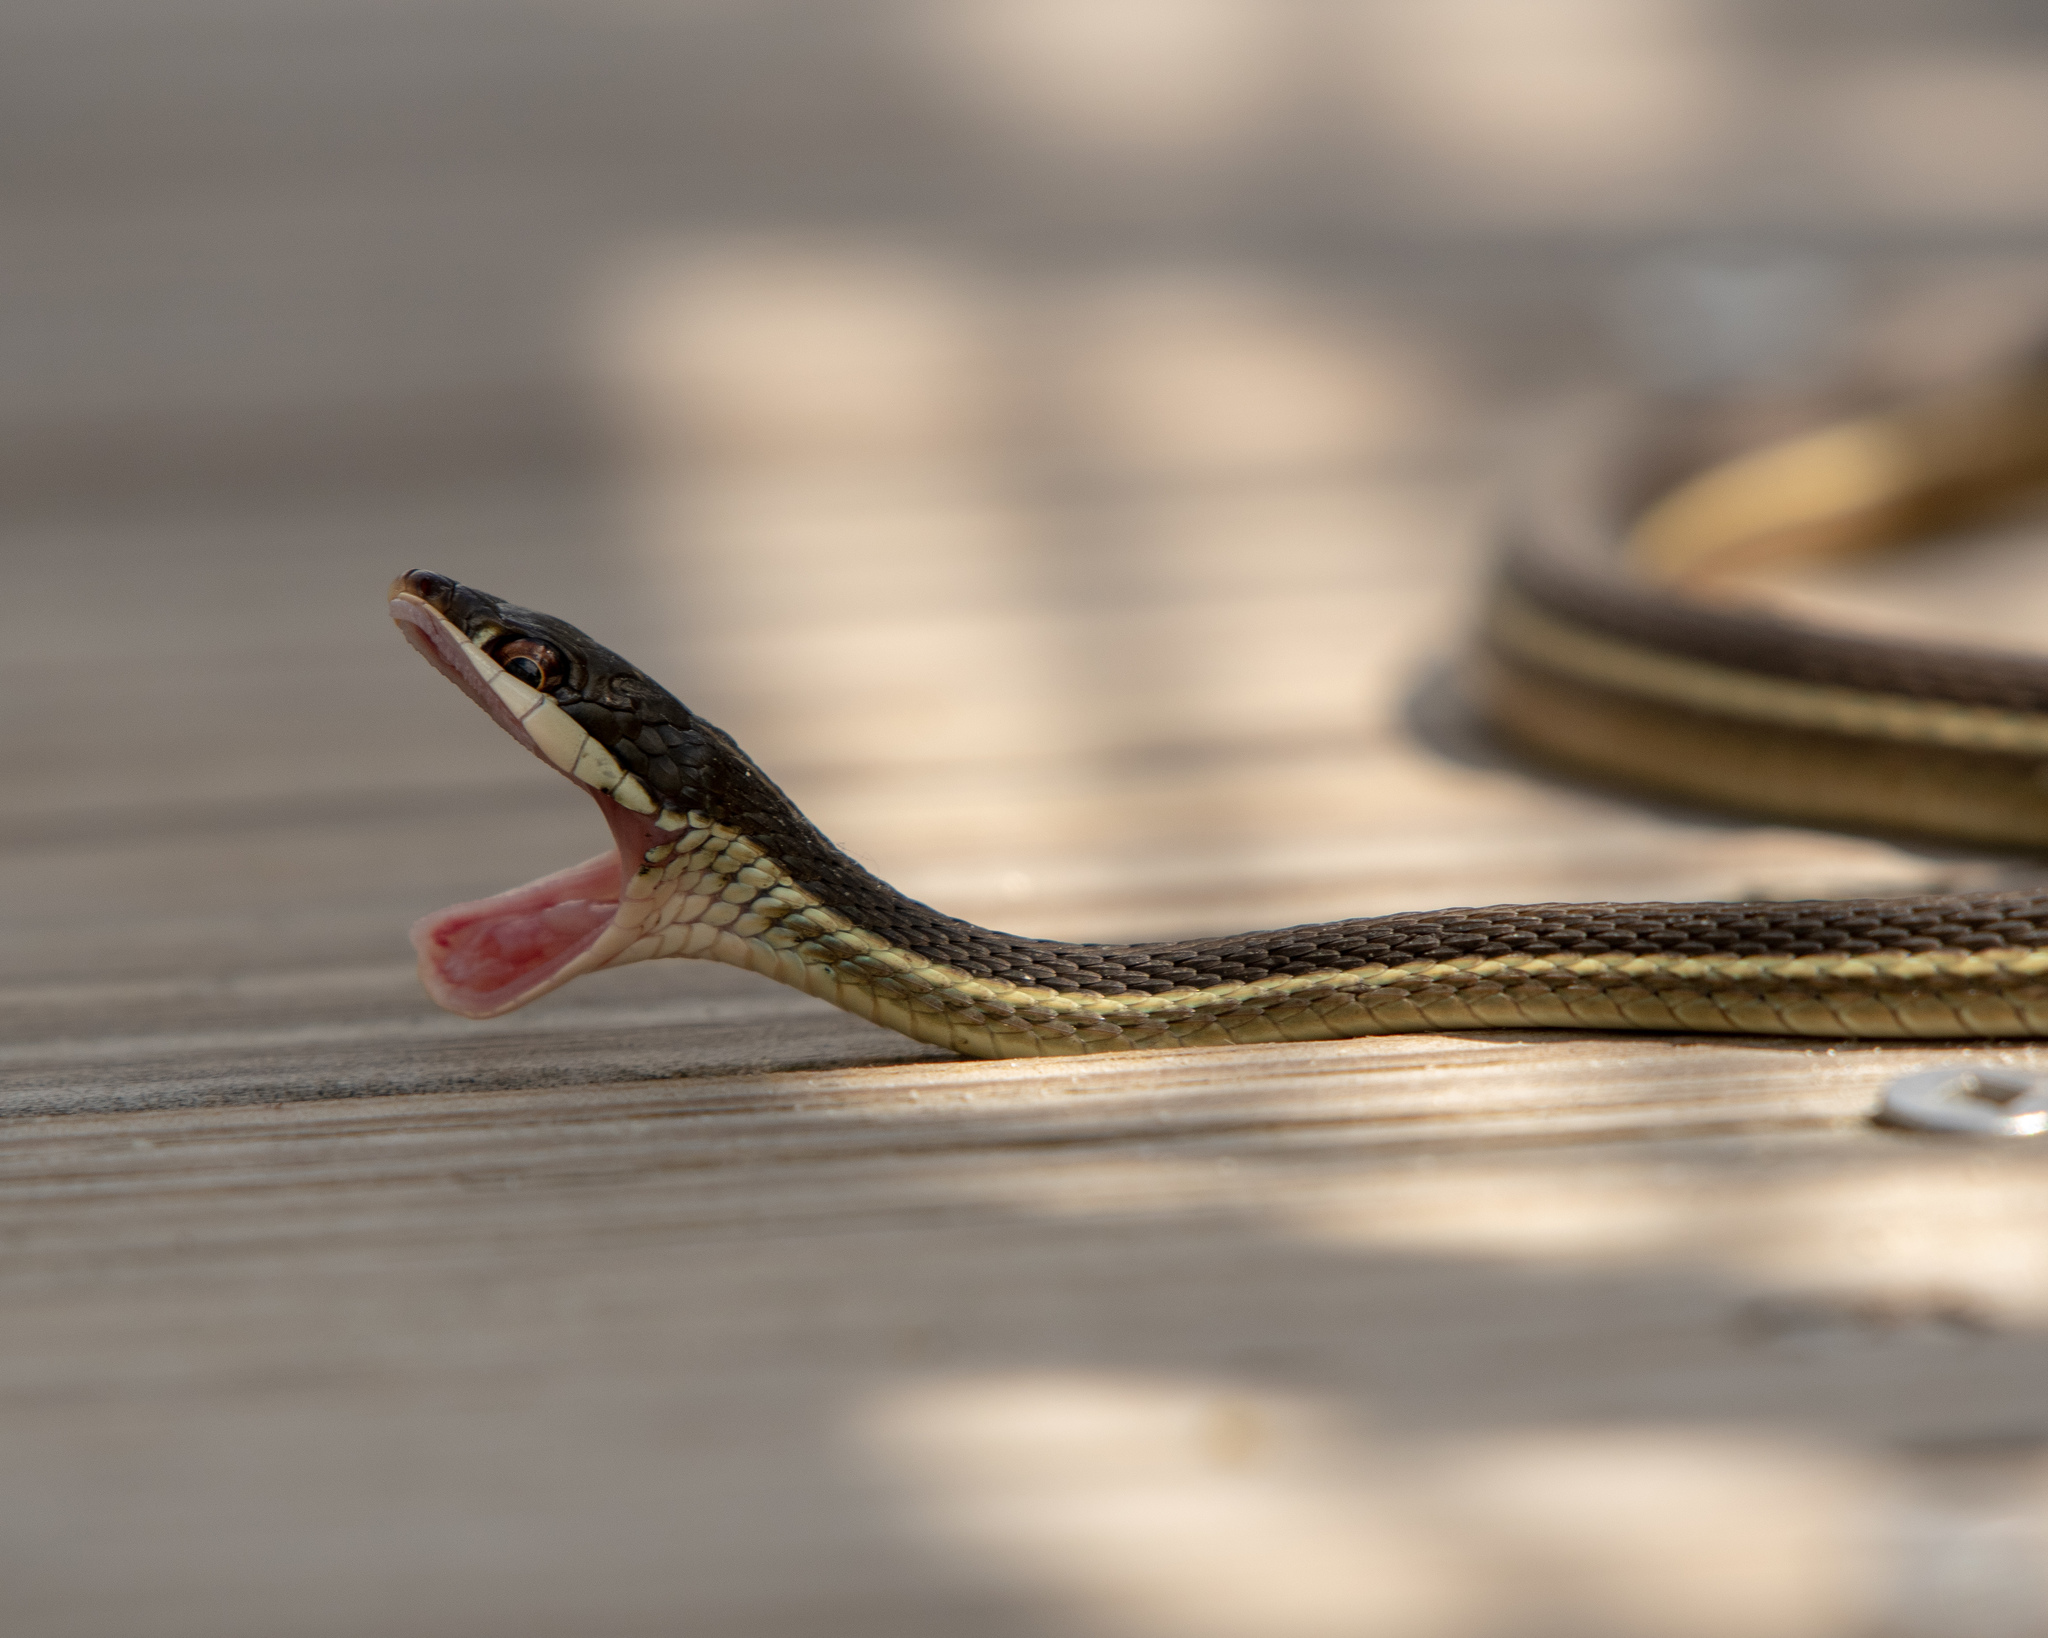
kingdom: Animalia
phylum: Chordata
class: Squamata
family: Colubridae
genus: Thamnophis
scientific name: Thamnophis saurita
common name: Eastern ribbonsnake
